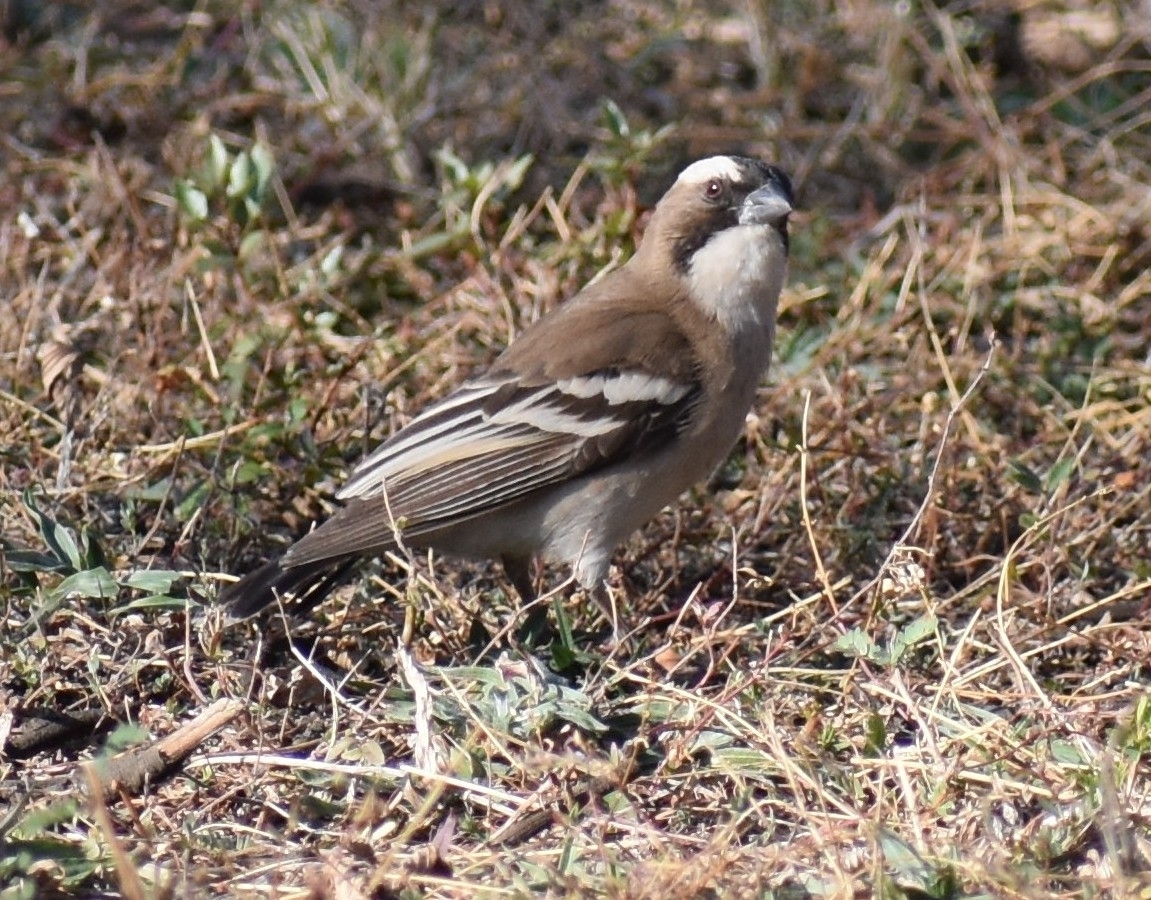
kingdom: Animalia
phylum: Chordata
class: Aves
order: Passeriformes
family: Passeridae
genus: Plocepasser
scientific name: Plocepasser mahali
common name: White-browed sparrow-weaver
